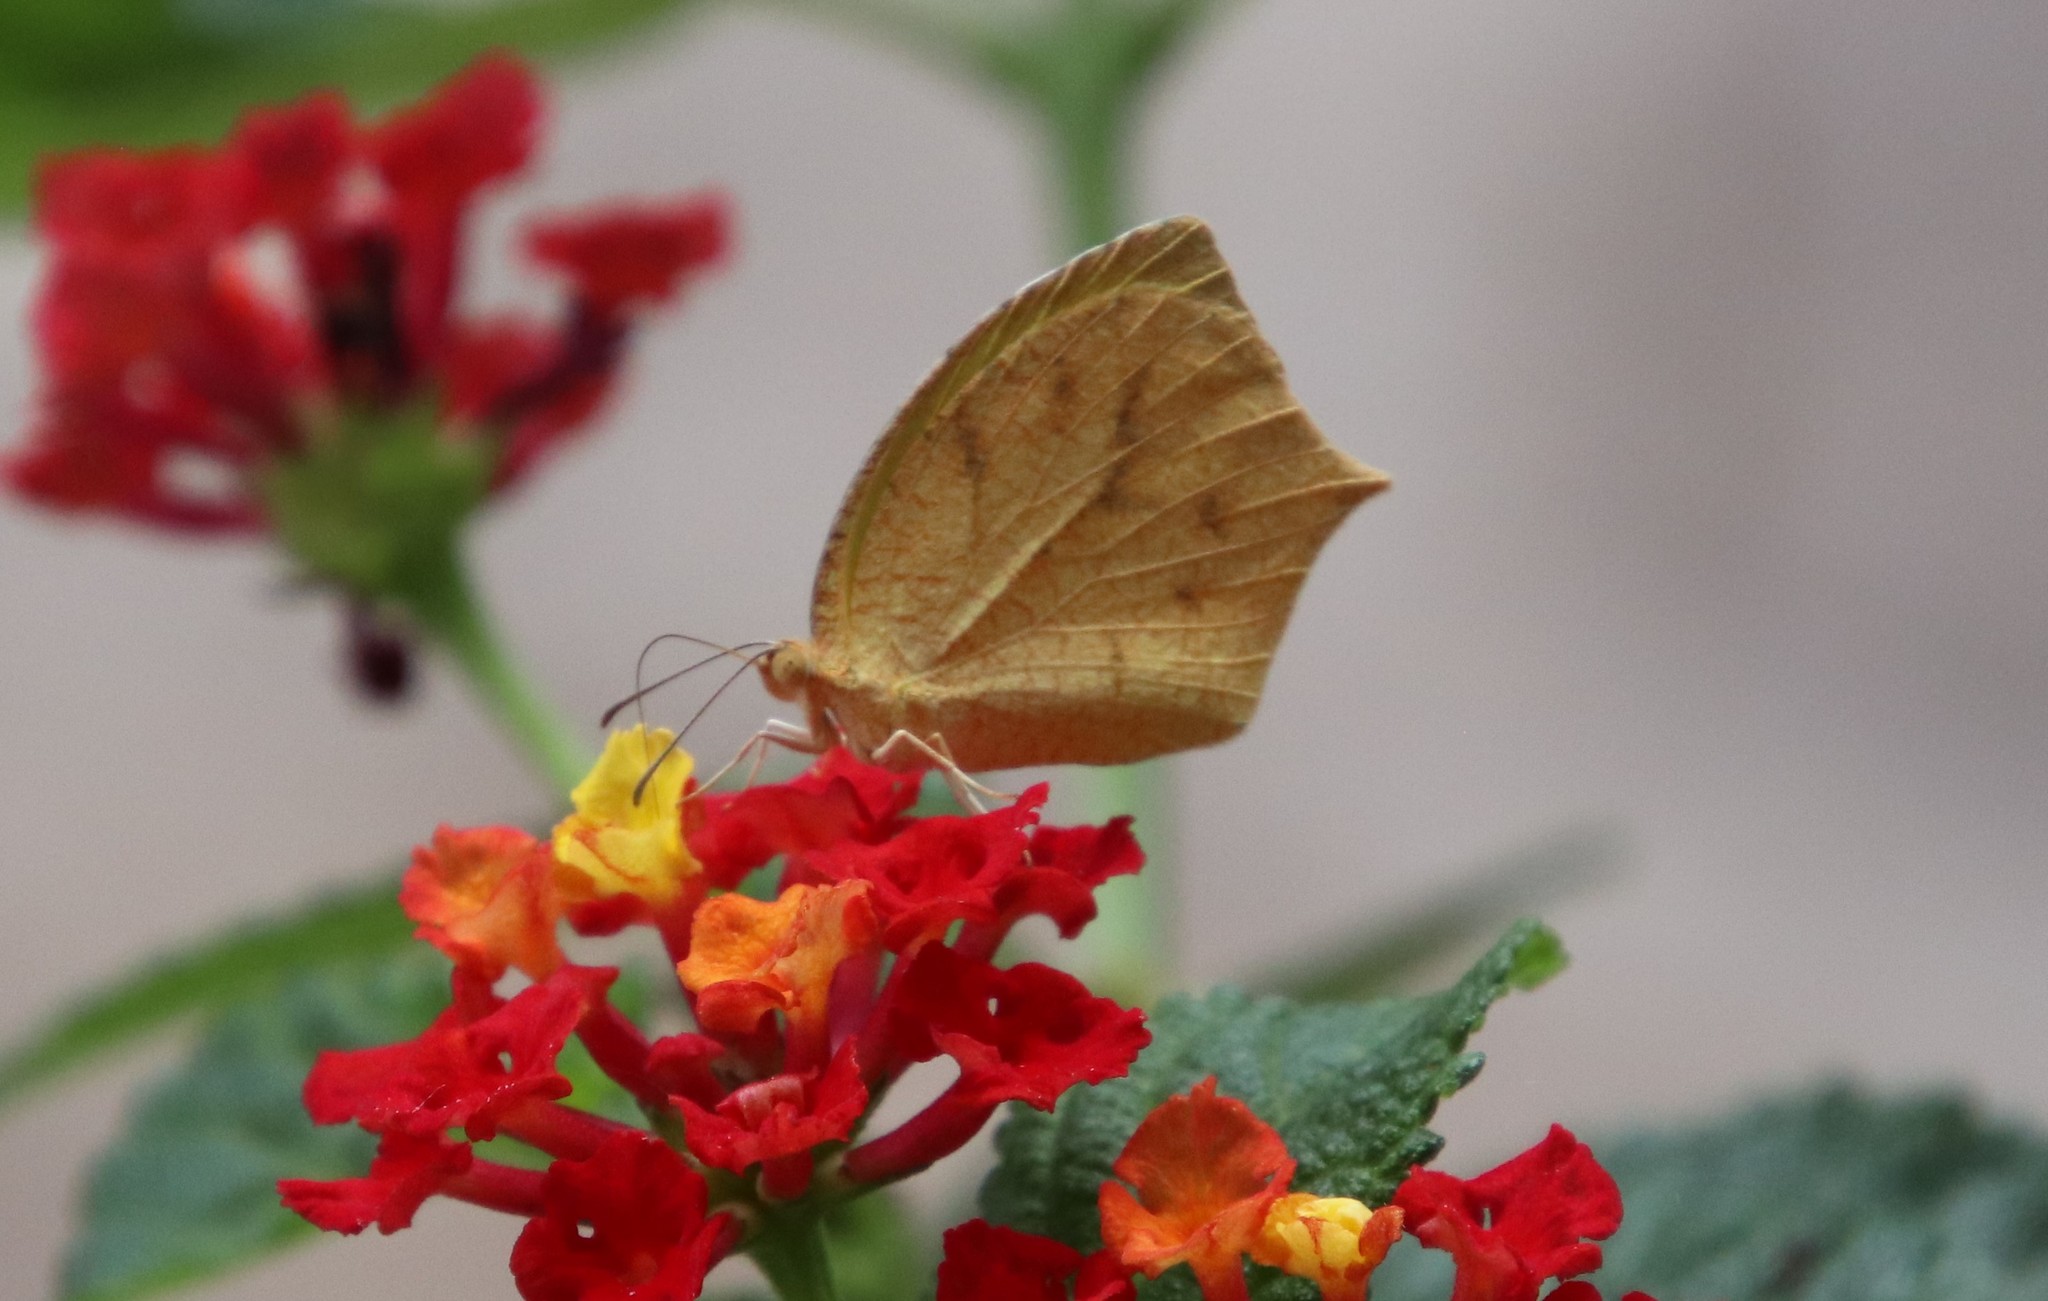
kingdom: Animalia
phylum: Arthropoda
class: Insecta
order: Lepidoptera
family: Pieridae
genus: Pyrisitia
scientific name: Pyrisitia proterpia
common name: Tailed orange
